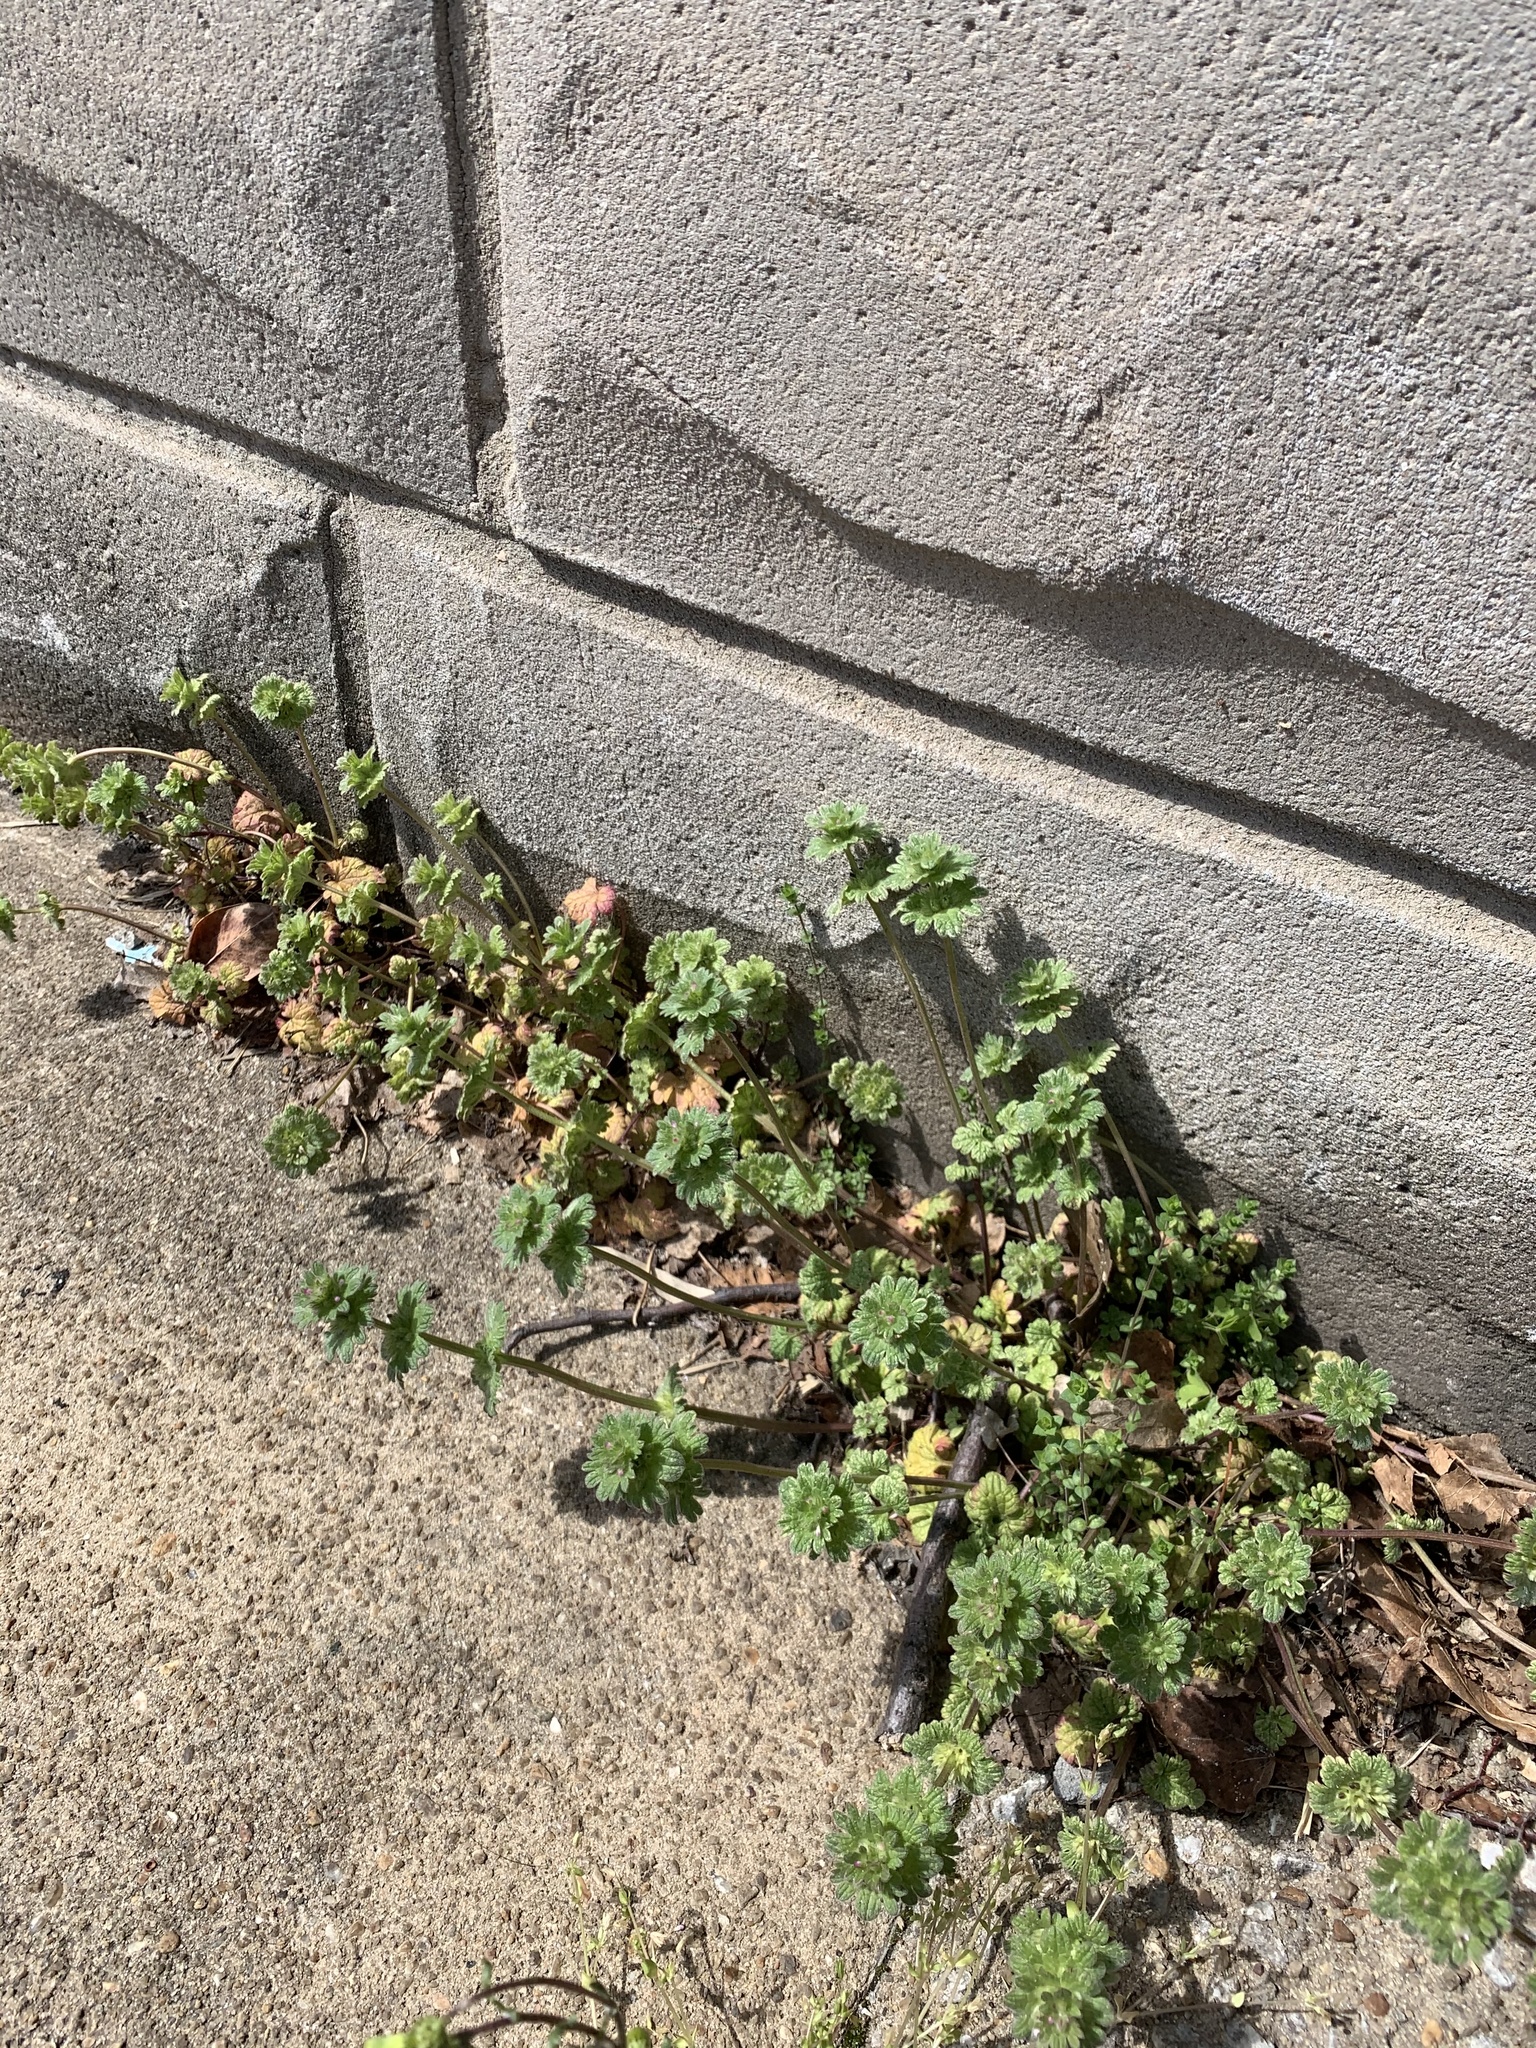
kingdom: Plantae
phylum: Tracheophyta
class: Magnoliopsida
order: Lamiales
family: Lamiaceae
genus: Lamium
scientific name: Lamium amplexicaule
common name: Henbit dead-nettle
